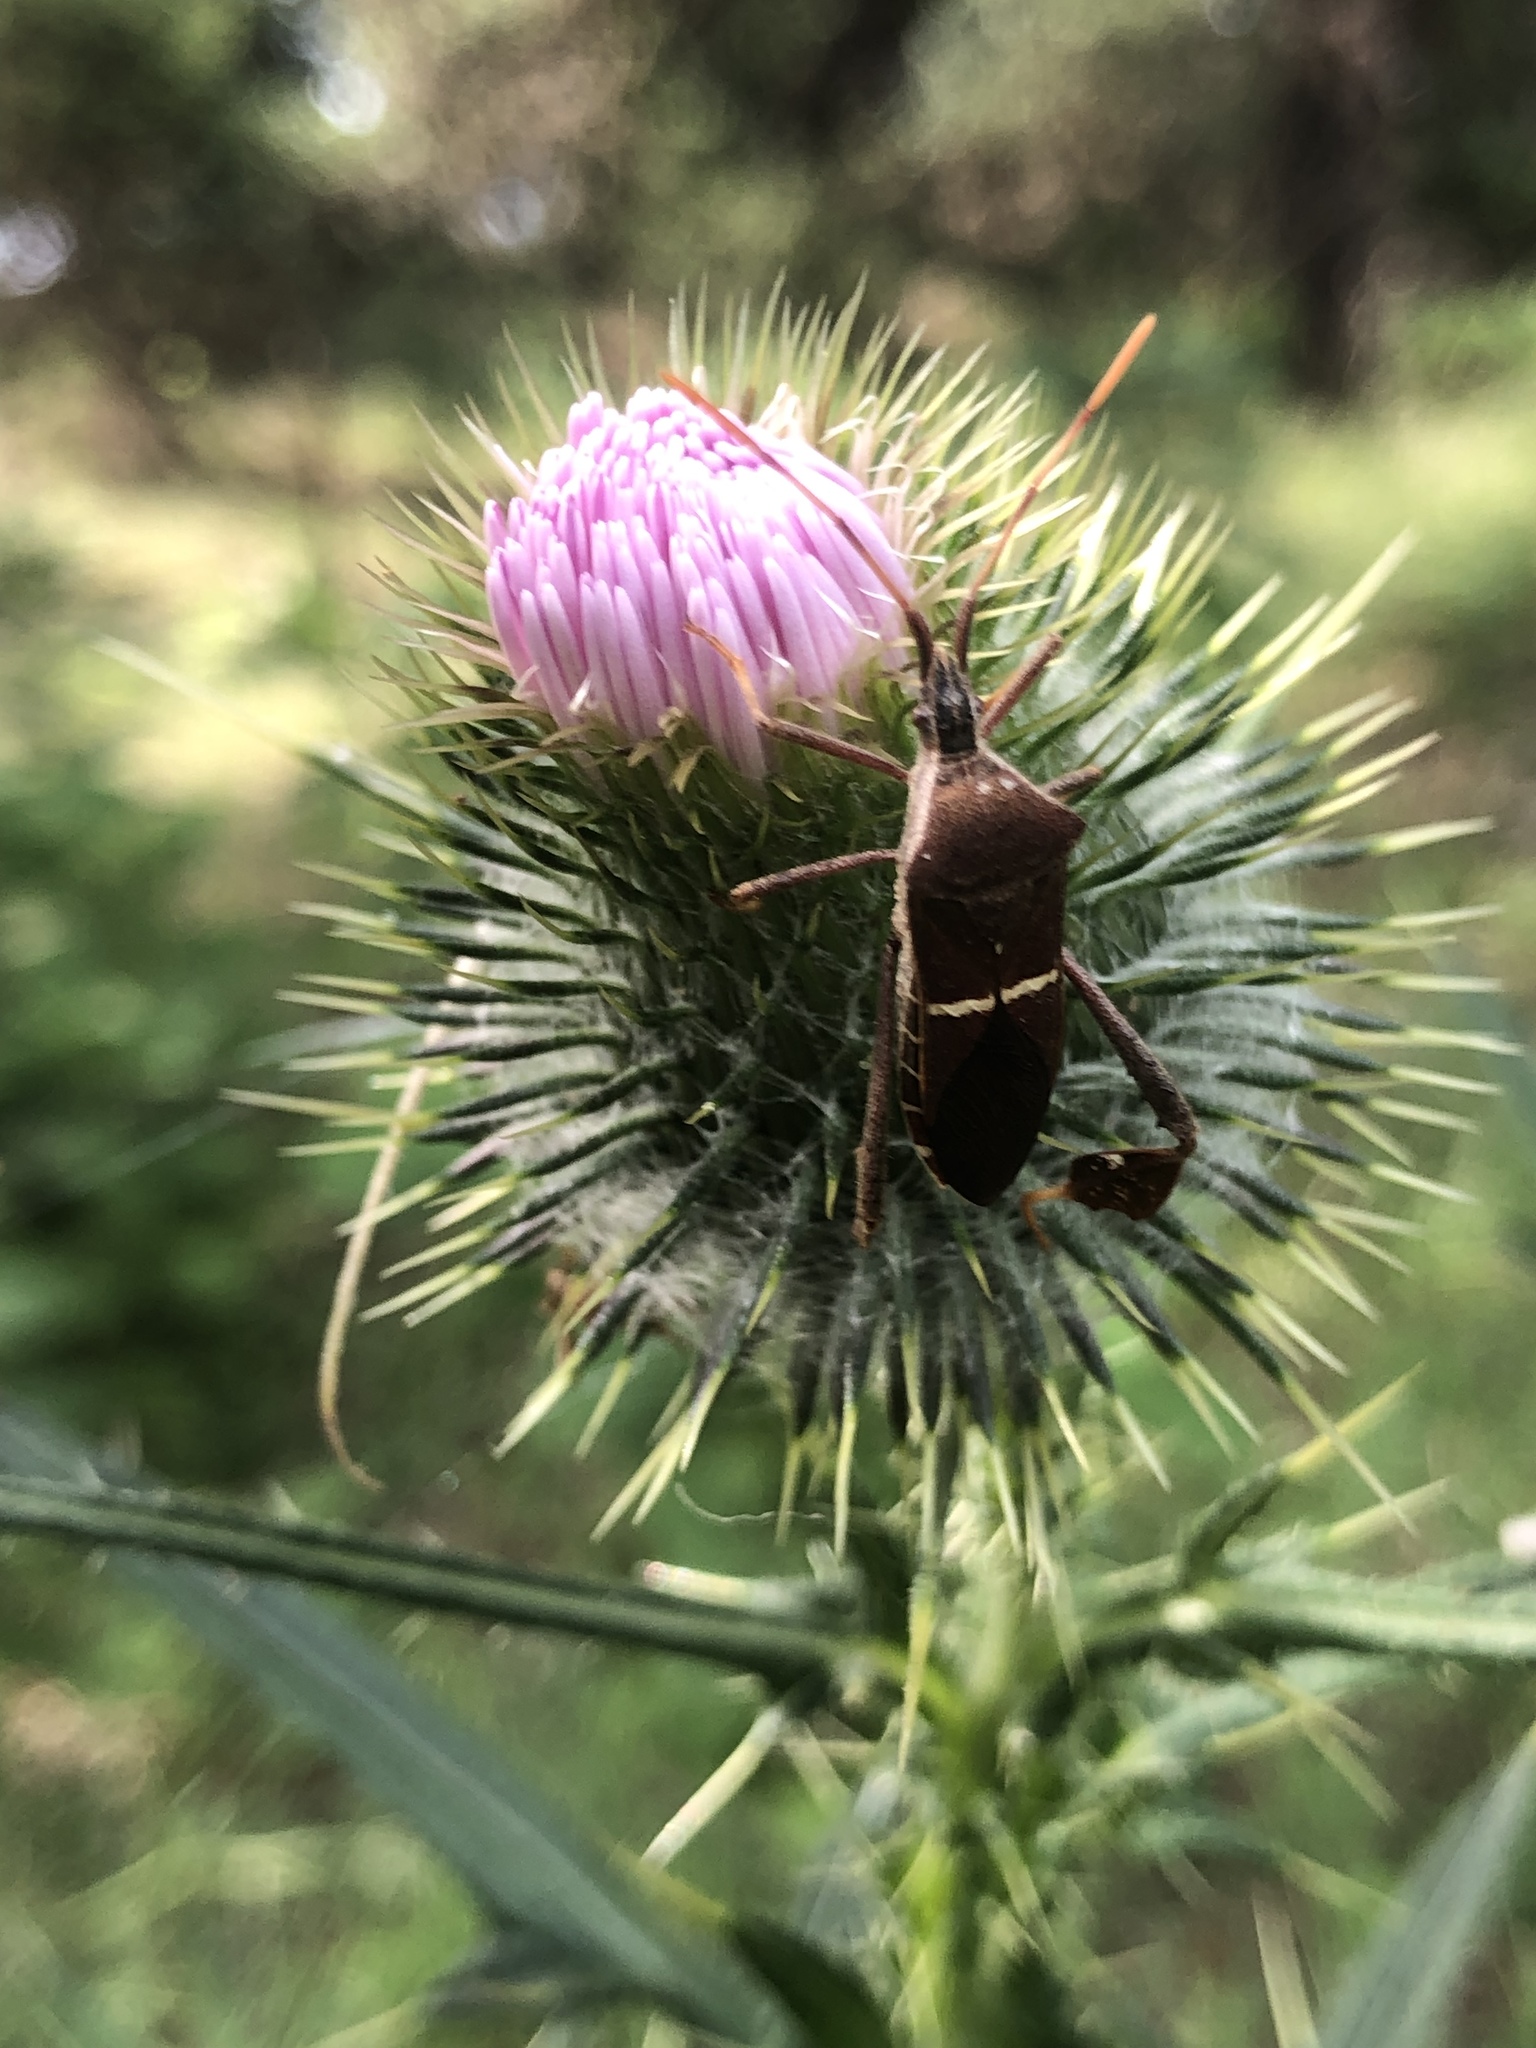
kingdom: Animalia
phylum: Arthropoda
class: Insecta
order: Hemiptera
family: Coreidae
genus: Leptoglossus
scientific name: Leptoglossus phyllopus
